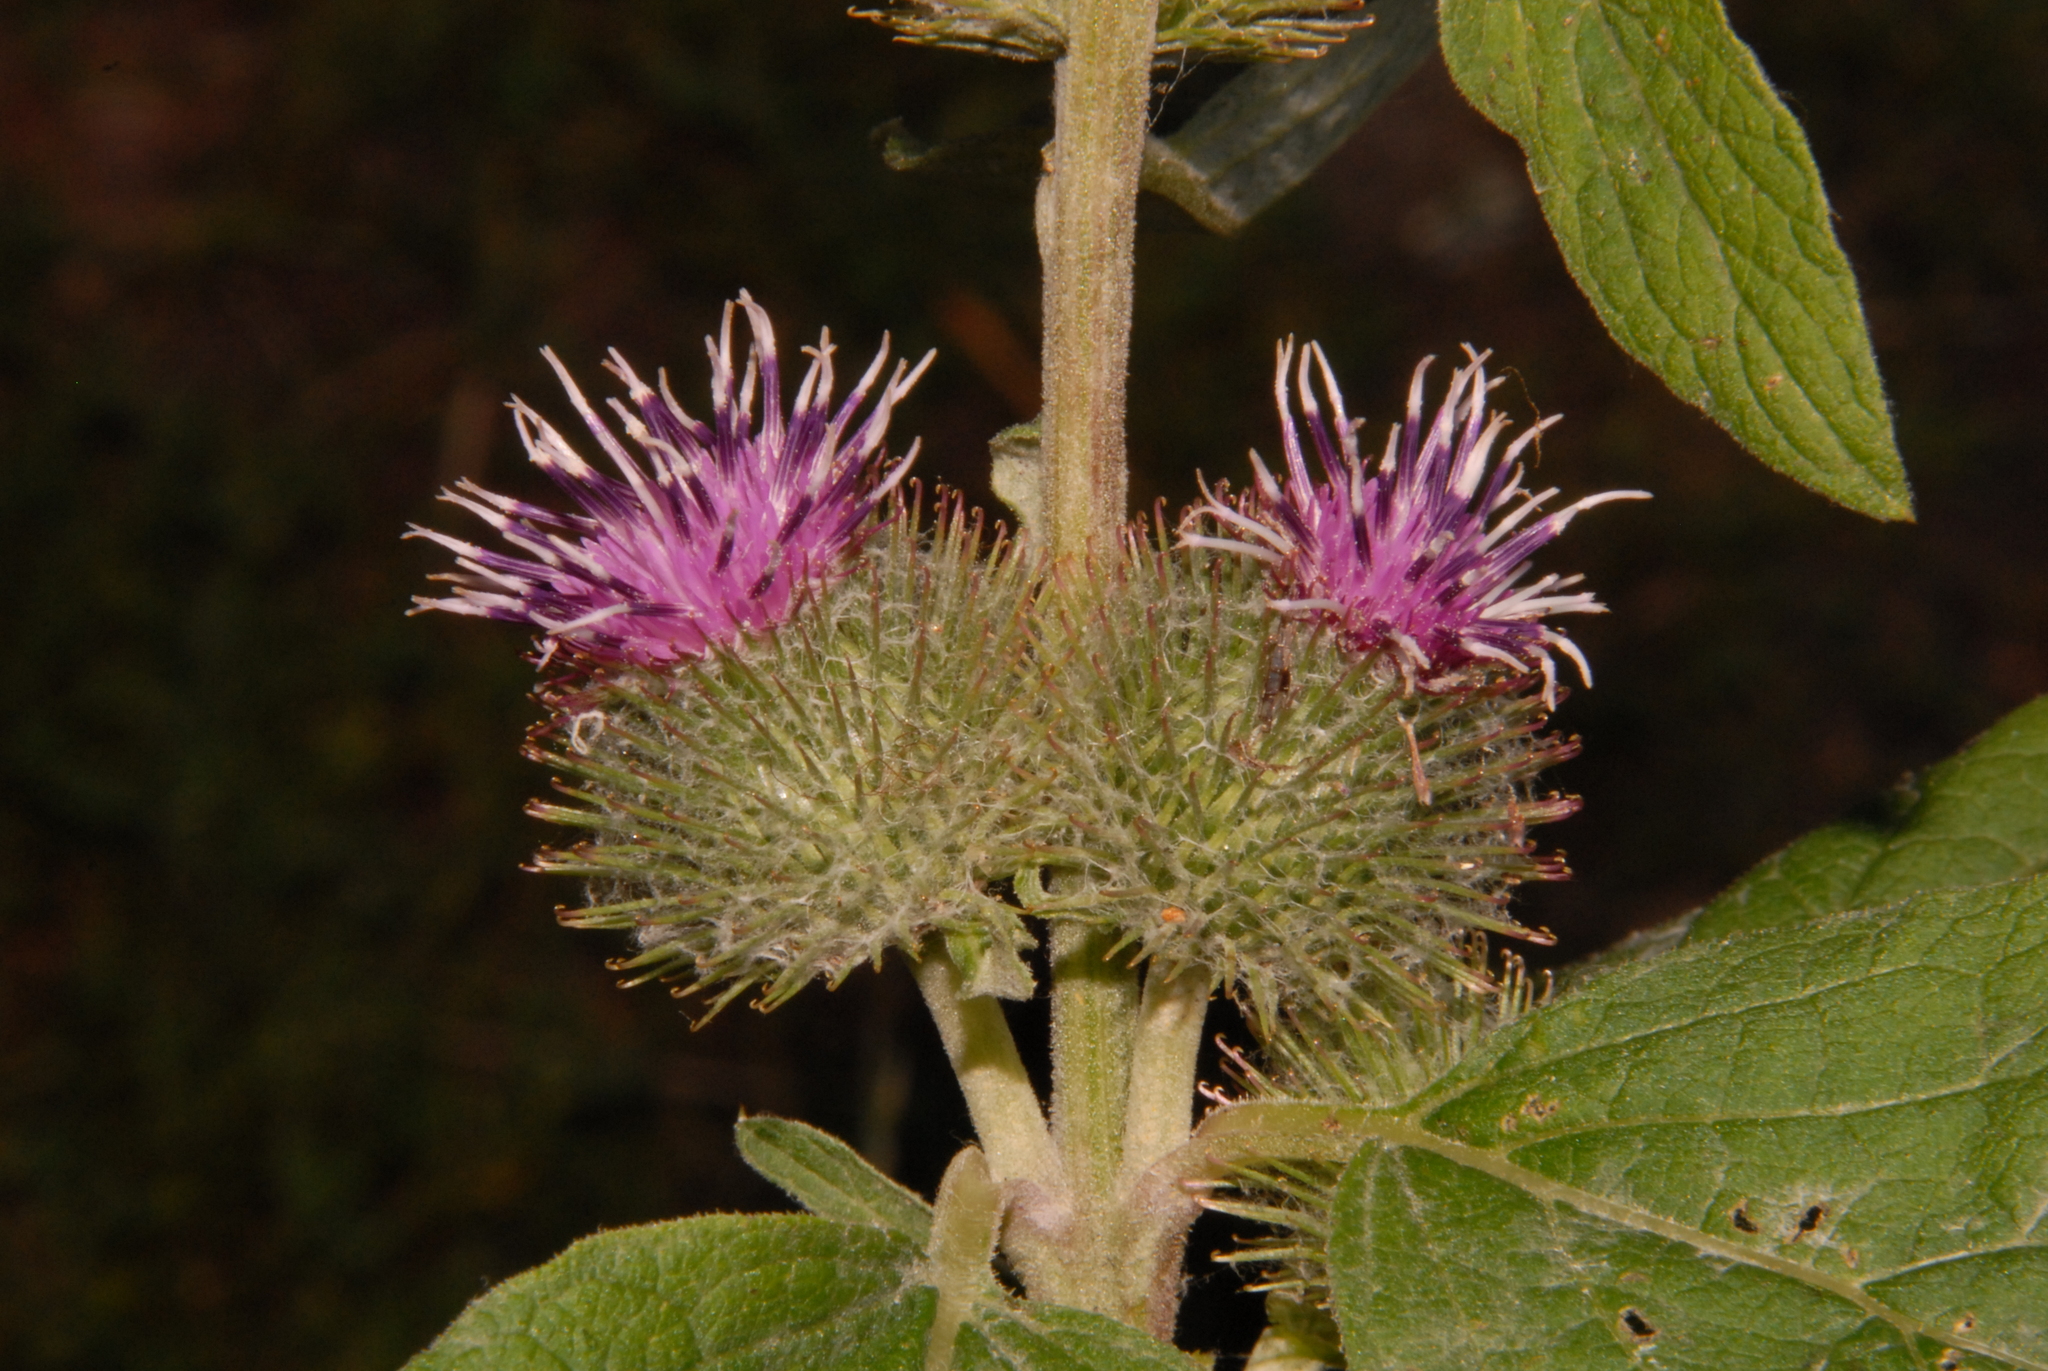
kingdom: Plantae
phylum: Tracheophyta
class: Magnoliopsida
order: Asterales
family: Asteraceae
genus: Arctium
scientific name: Arctium minus
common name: Lesser burdock
